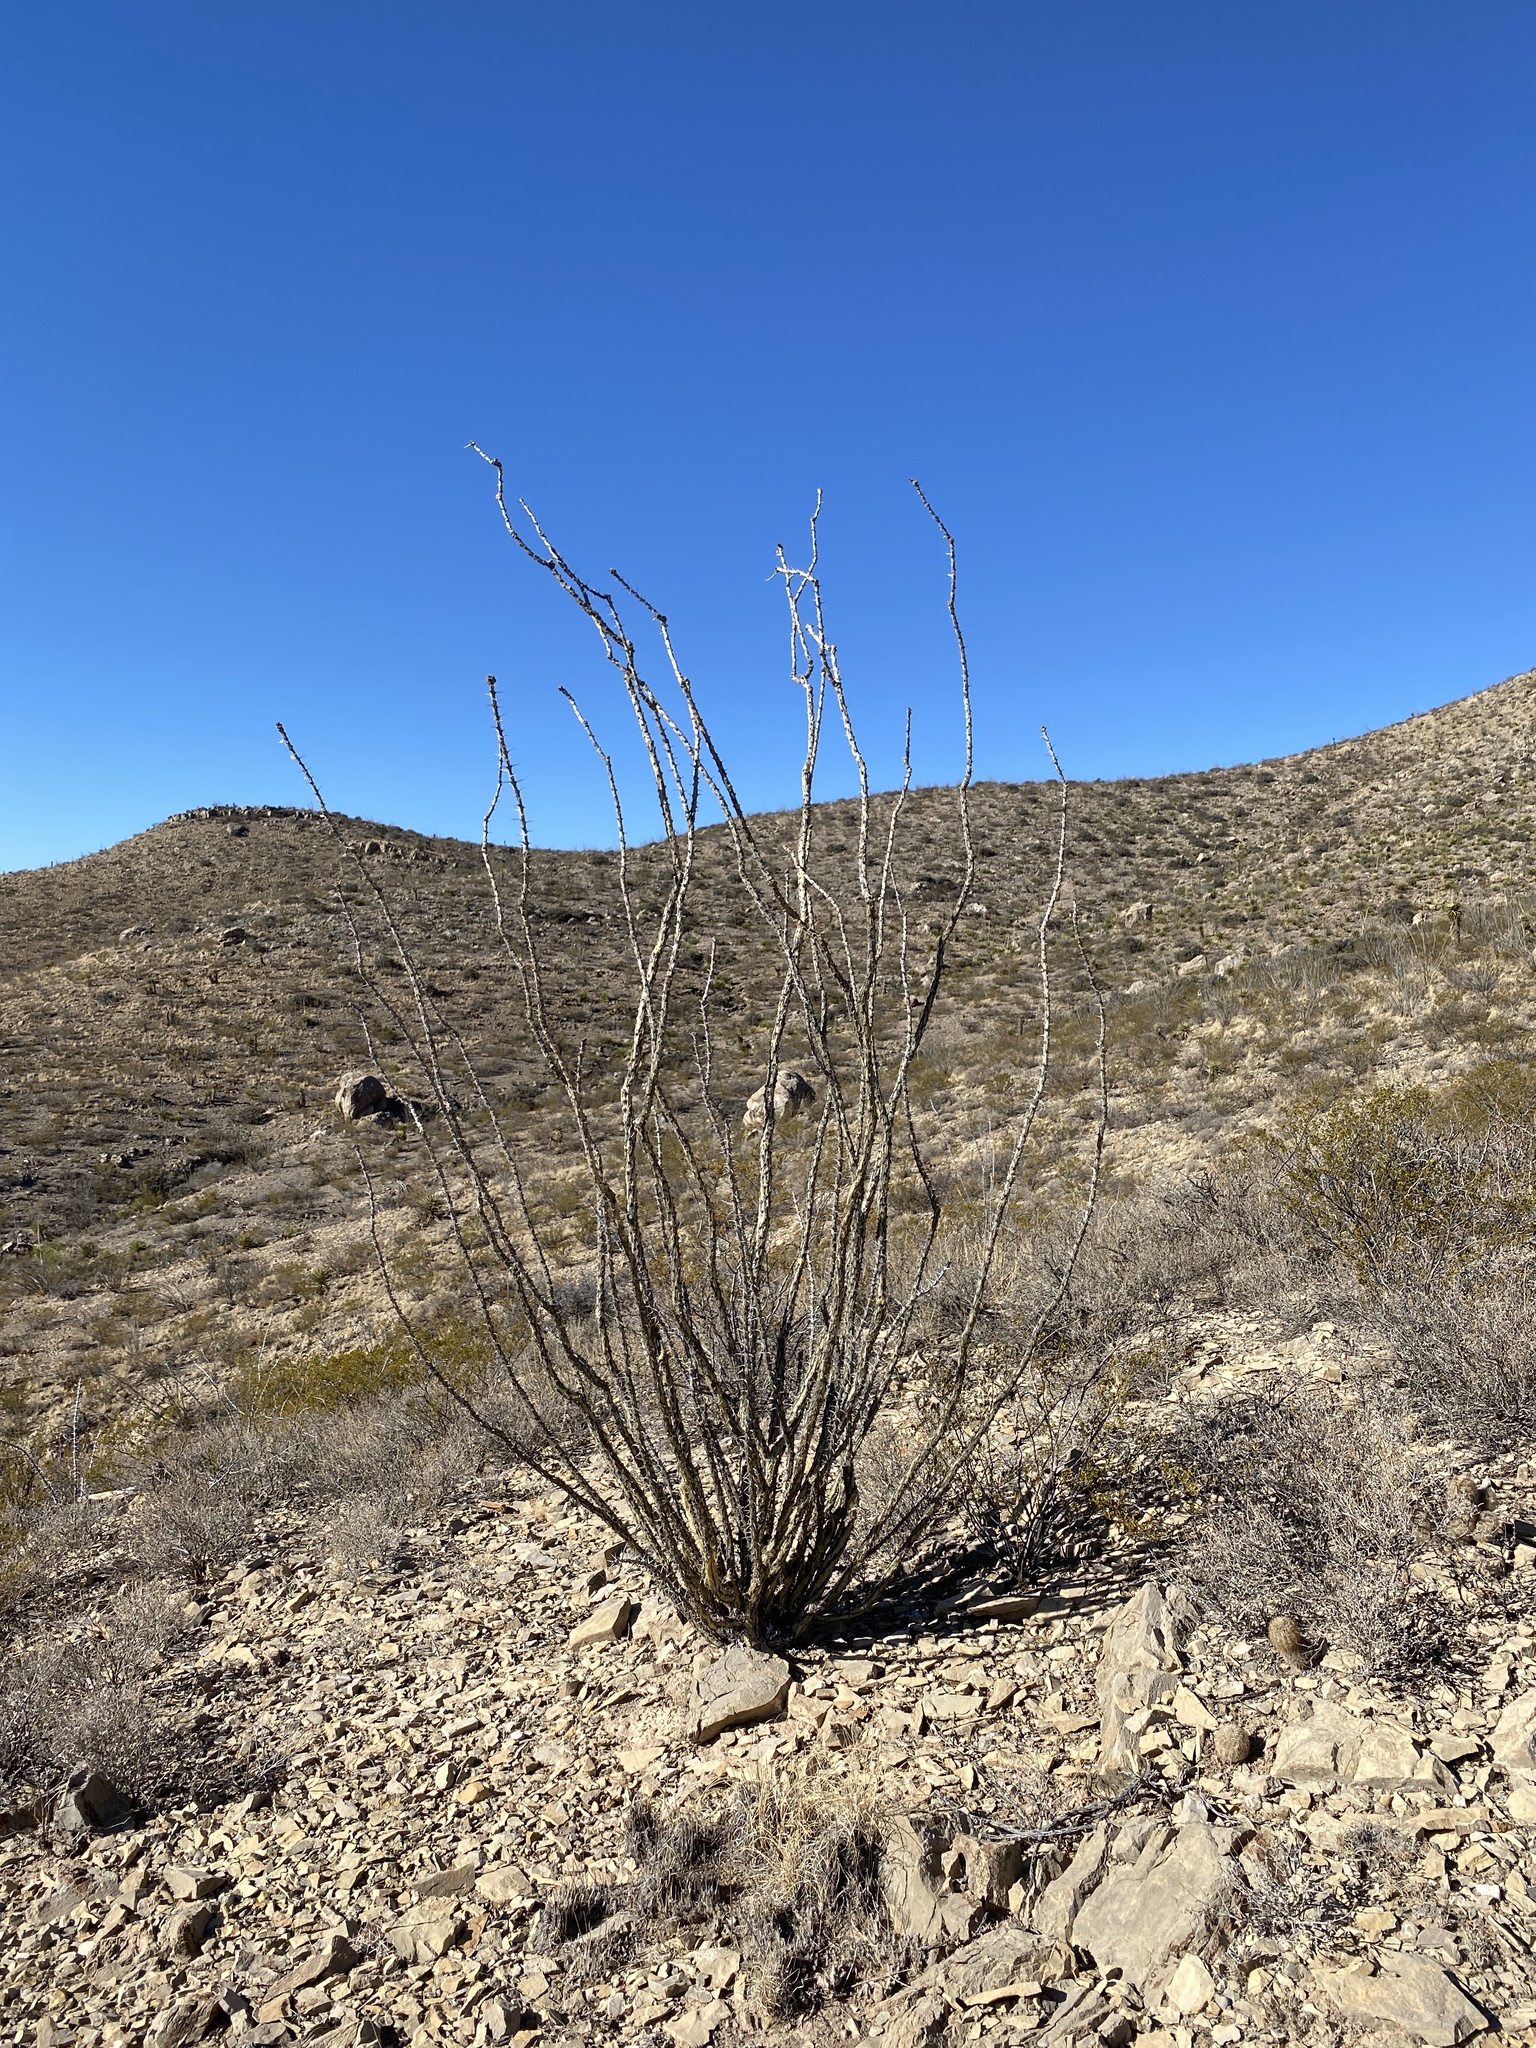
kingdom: Plantae
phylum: Tracheophyta
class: Magnoliopsida
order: Ericales
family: Fouquieriaceae
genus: Fouquieria
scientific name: Fouquieria splendens
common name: Vine-cactus
